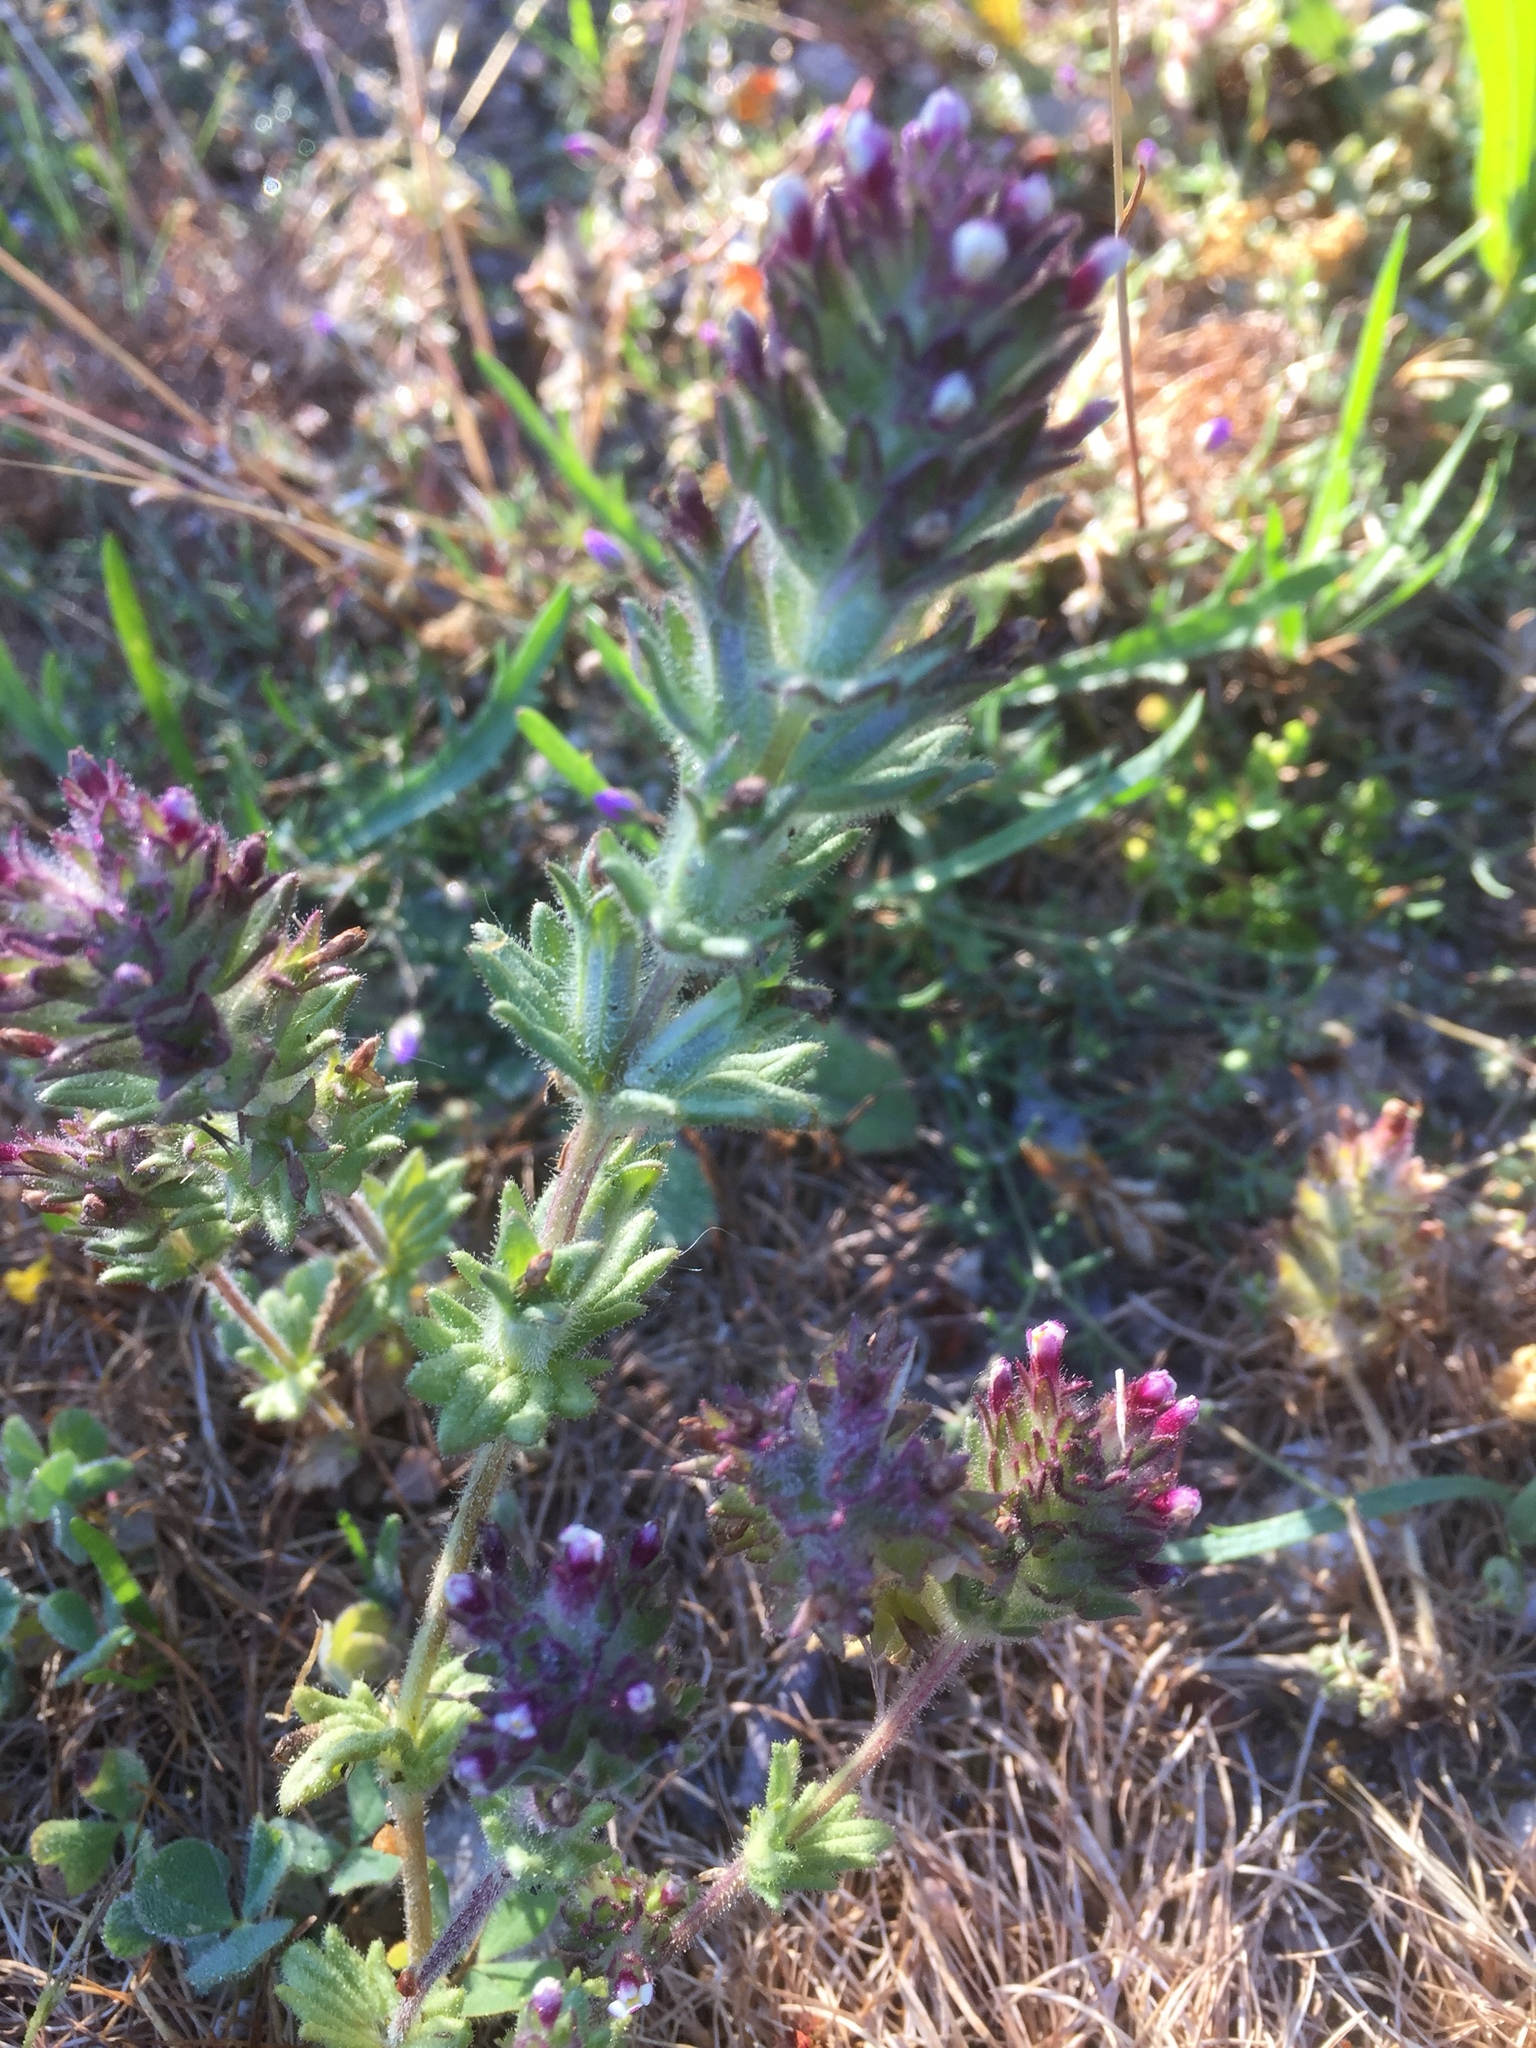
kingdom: Plantae
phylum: Tracheophyta
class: Magnoliopsida
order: Lamiales
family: Orobanchaceae
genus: Parentucellia
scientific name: Parentucellia latifolia
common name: Broadleaf glandweed
